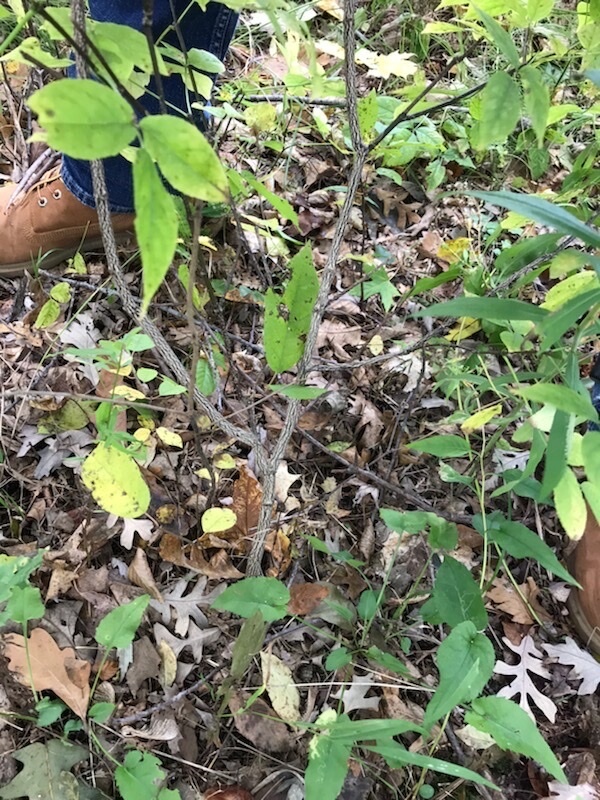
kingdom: Plantae
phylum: Tracheophyta
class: Magnoliopsida
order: Crossosomatales
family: Staphyleaceae
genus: Staphylea
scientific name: Staphylea trifolia
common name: American bladdernut
